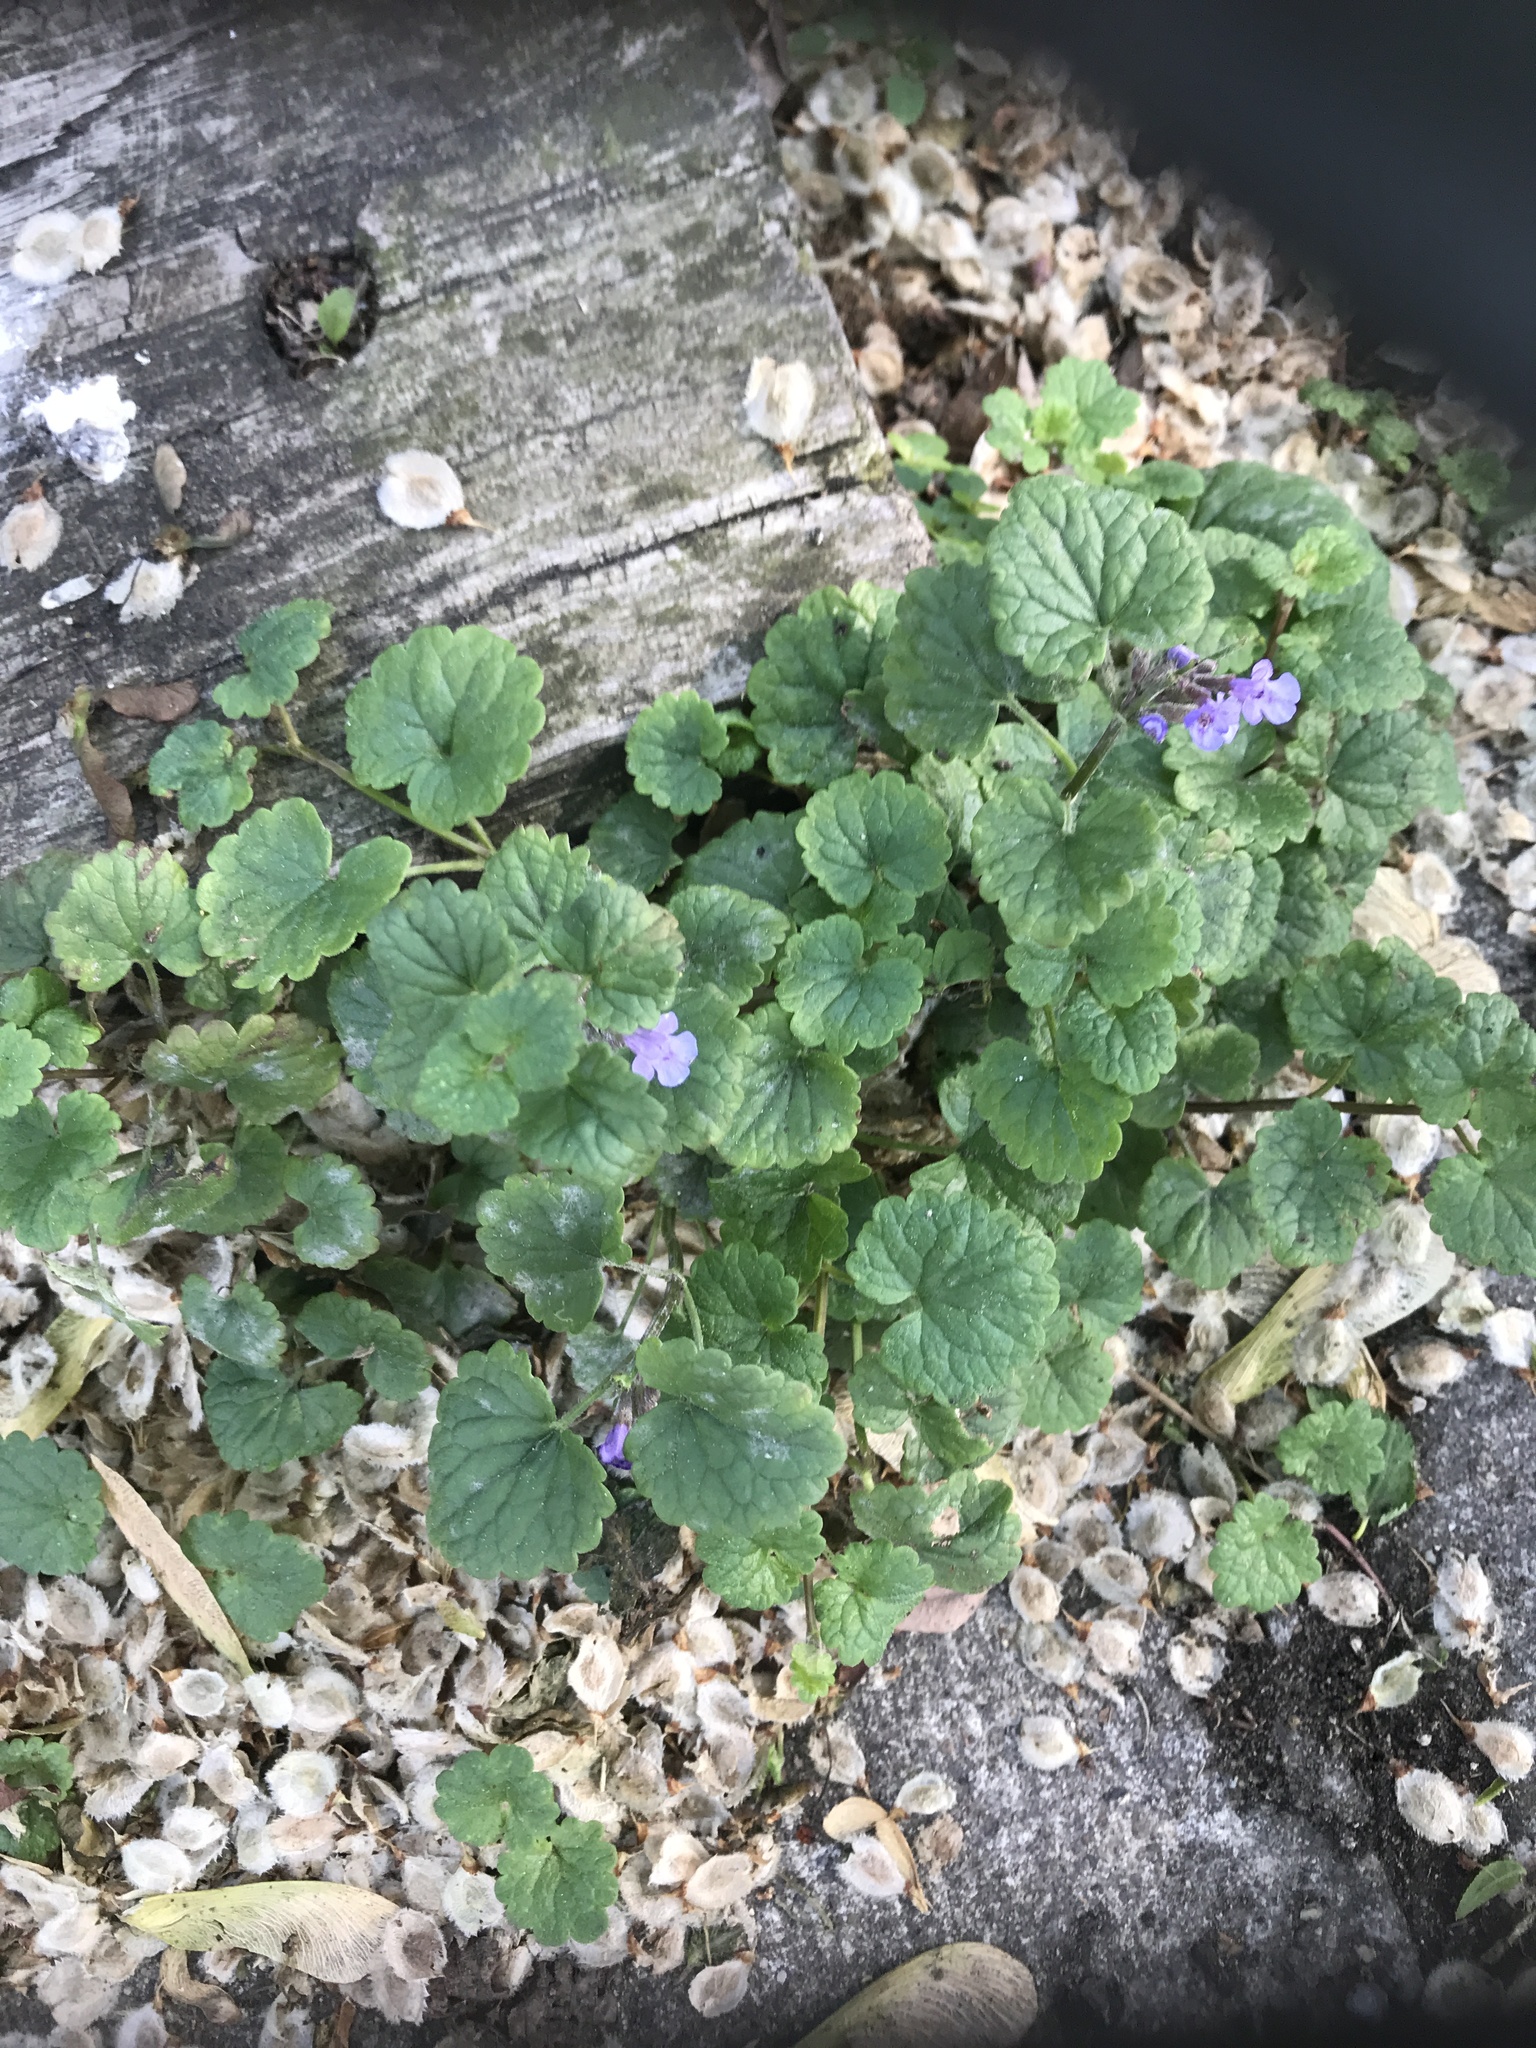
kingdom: Plantae
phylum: Tracheophyta
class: Magnoliopsida
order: Lamiales
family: Lamiaceae
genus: Glechoma
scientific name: Glechoma hederacea
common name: Ground ivy
